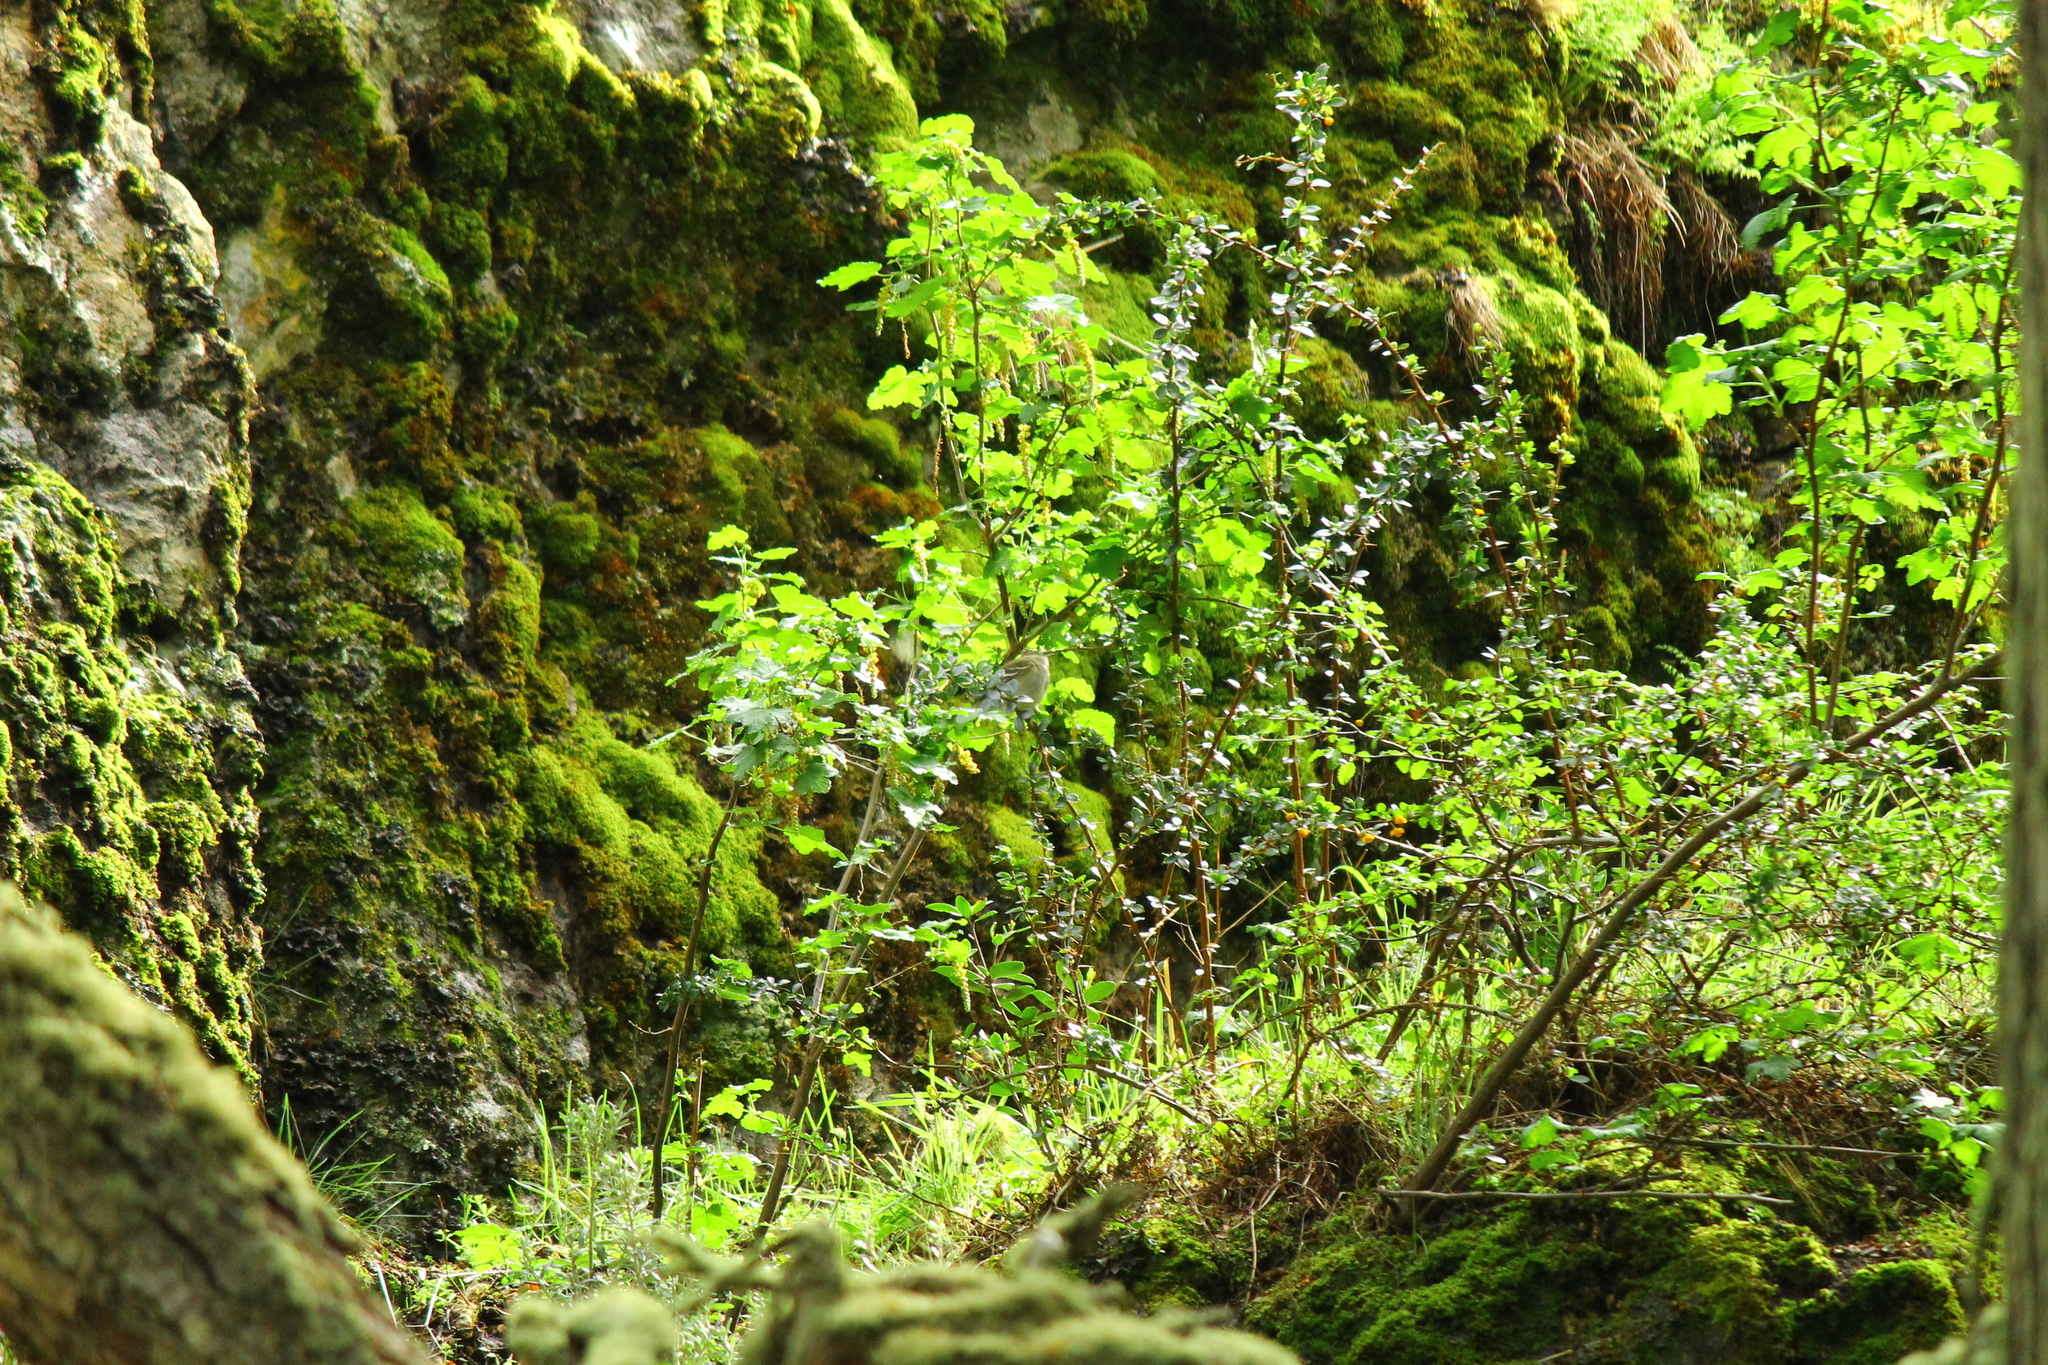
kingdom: Animalia
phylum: Chordata
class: Aves
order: Passeriformes
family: Tyrannidae
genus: Elaenia
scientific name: Elaenia albiceps
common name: White-crested elaenia
